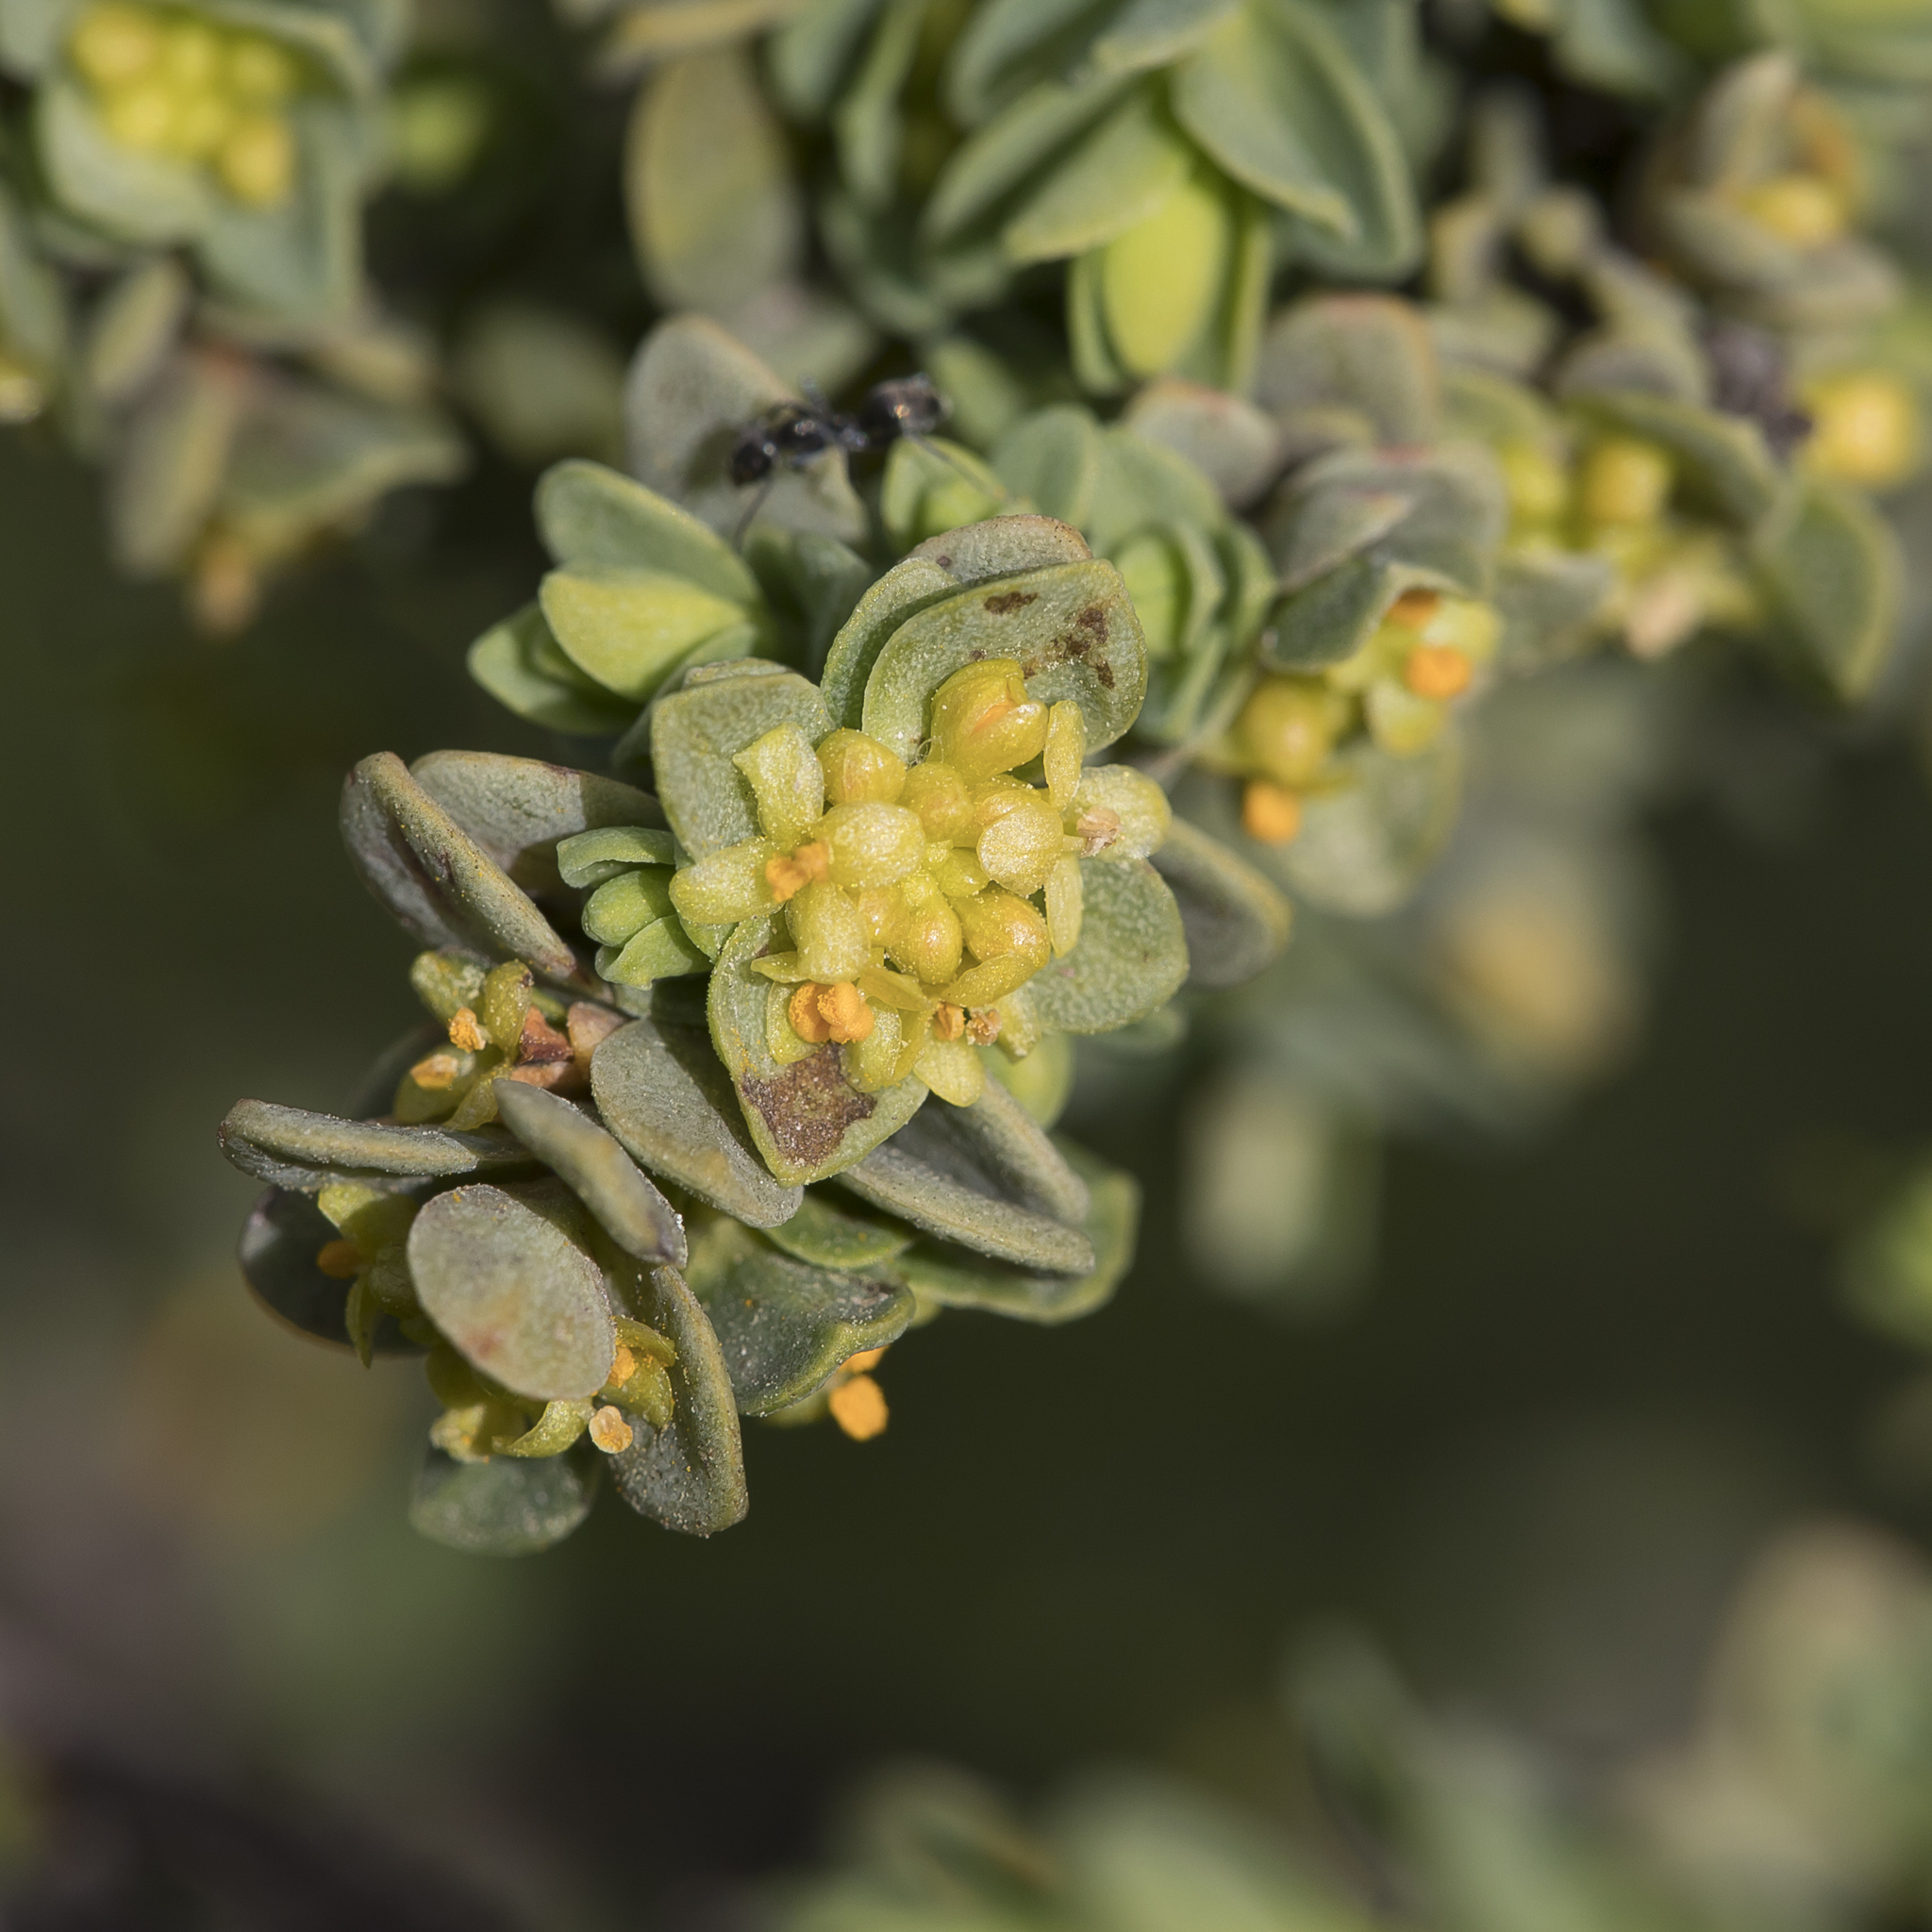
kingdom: Plantae
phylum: Tracheophyta
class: Magnoliopsida
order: Malvales
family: Thymelaeaceae
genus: Pimelea
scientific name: Pimelea serpyllifolia
